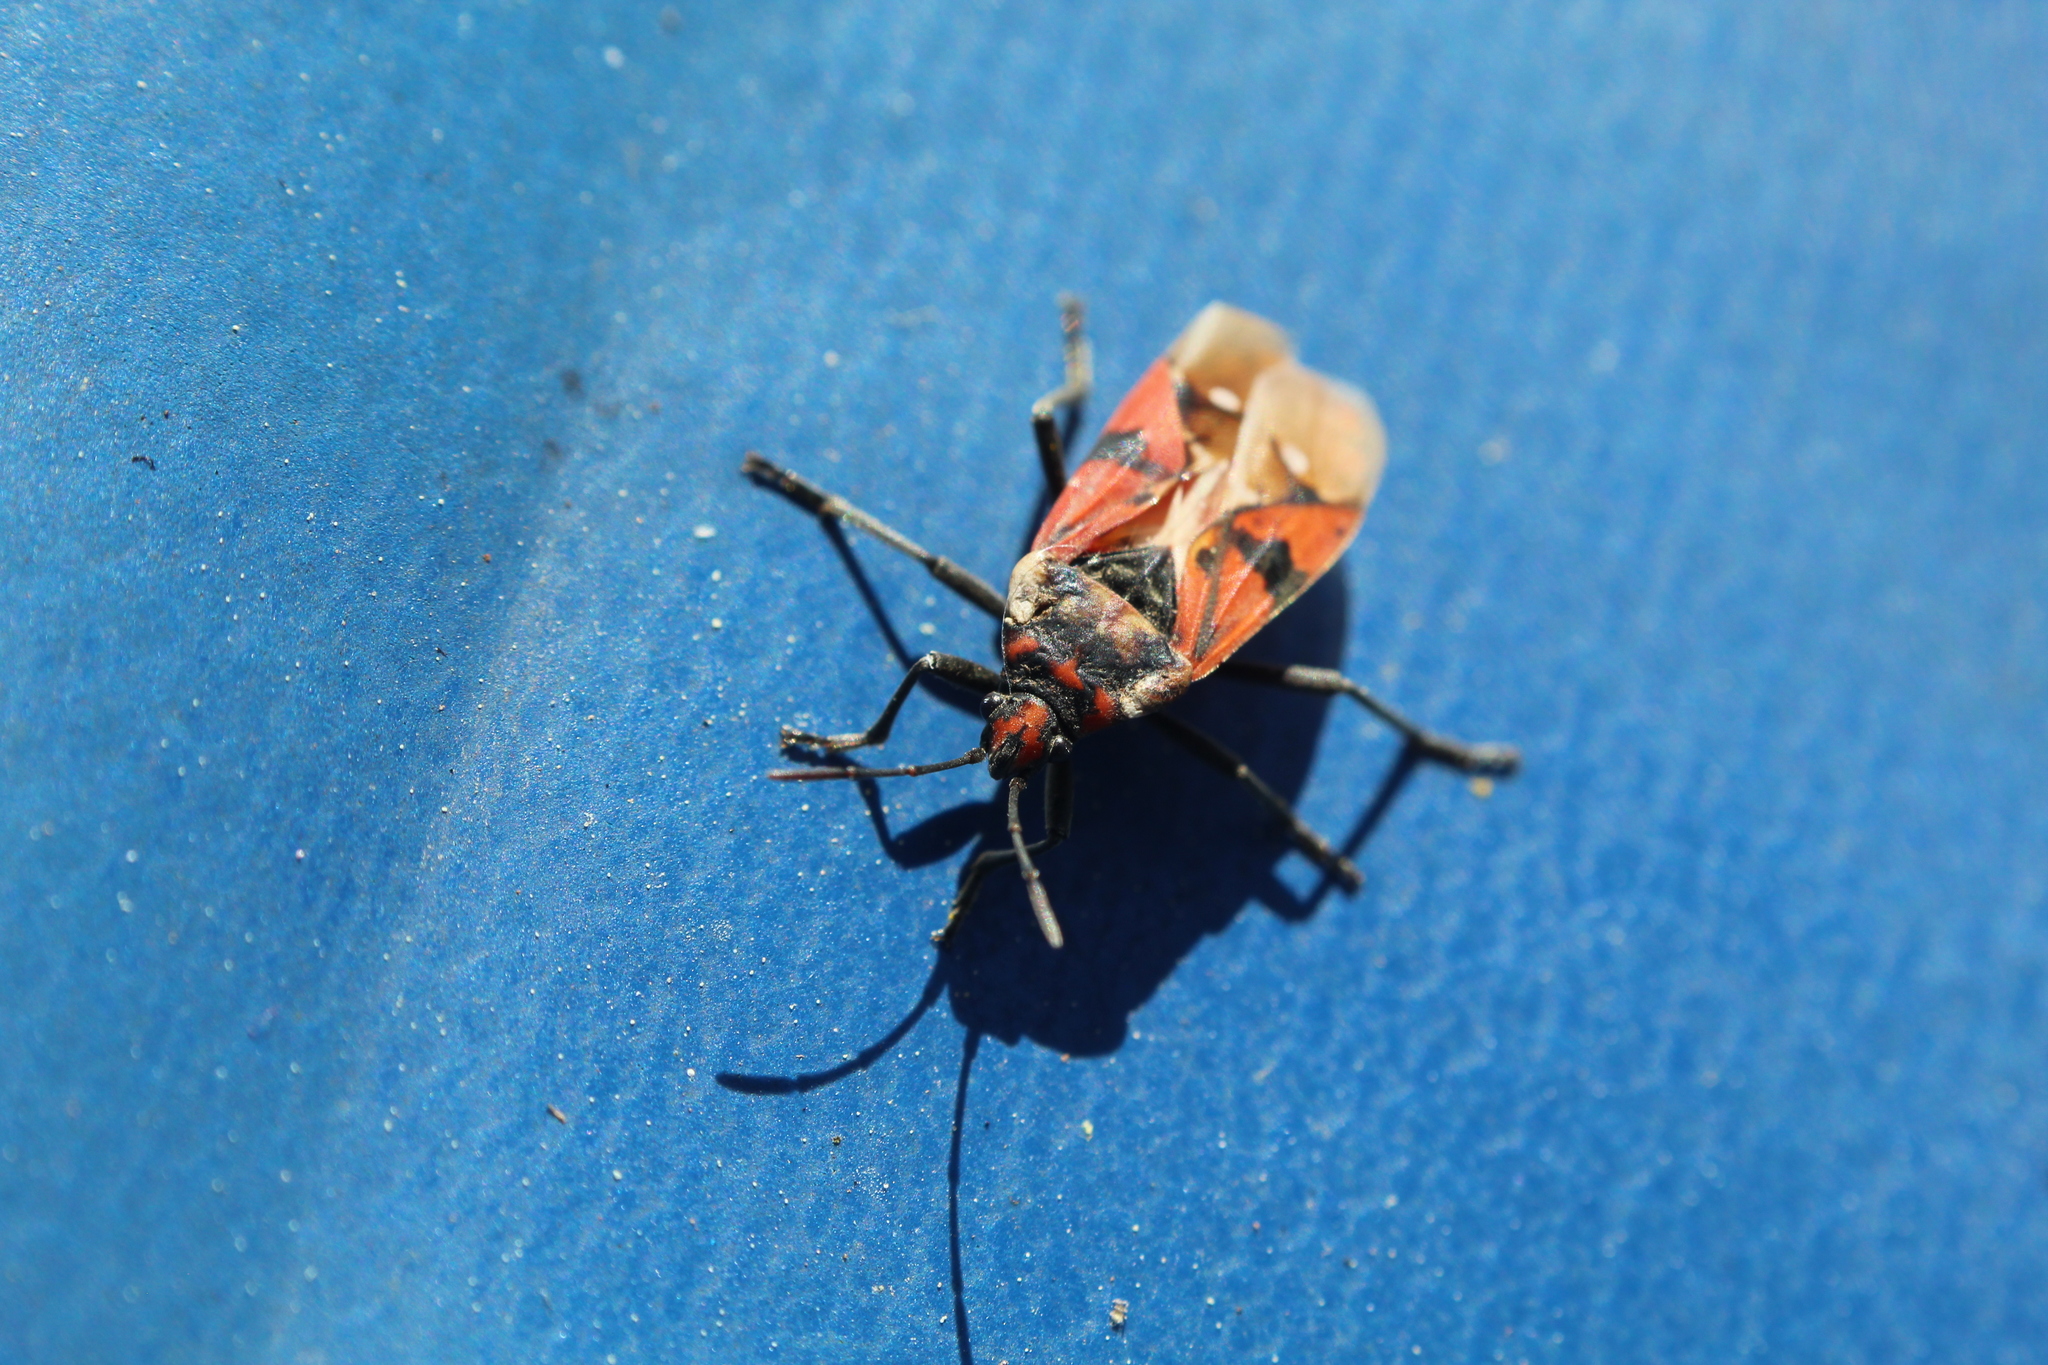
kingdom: Animalia
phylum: Arthropoda
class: Insecta
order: Hemiptera
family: Lygaeidae
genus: Spilostethus
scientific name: Spilostethus pandurus
